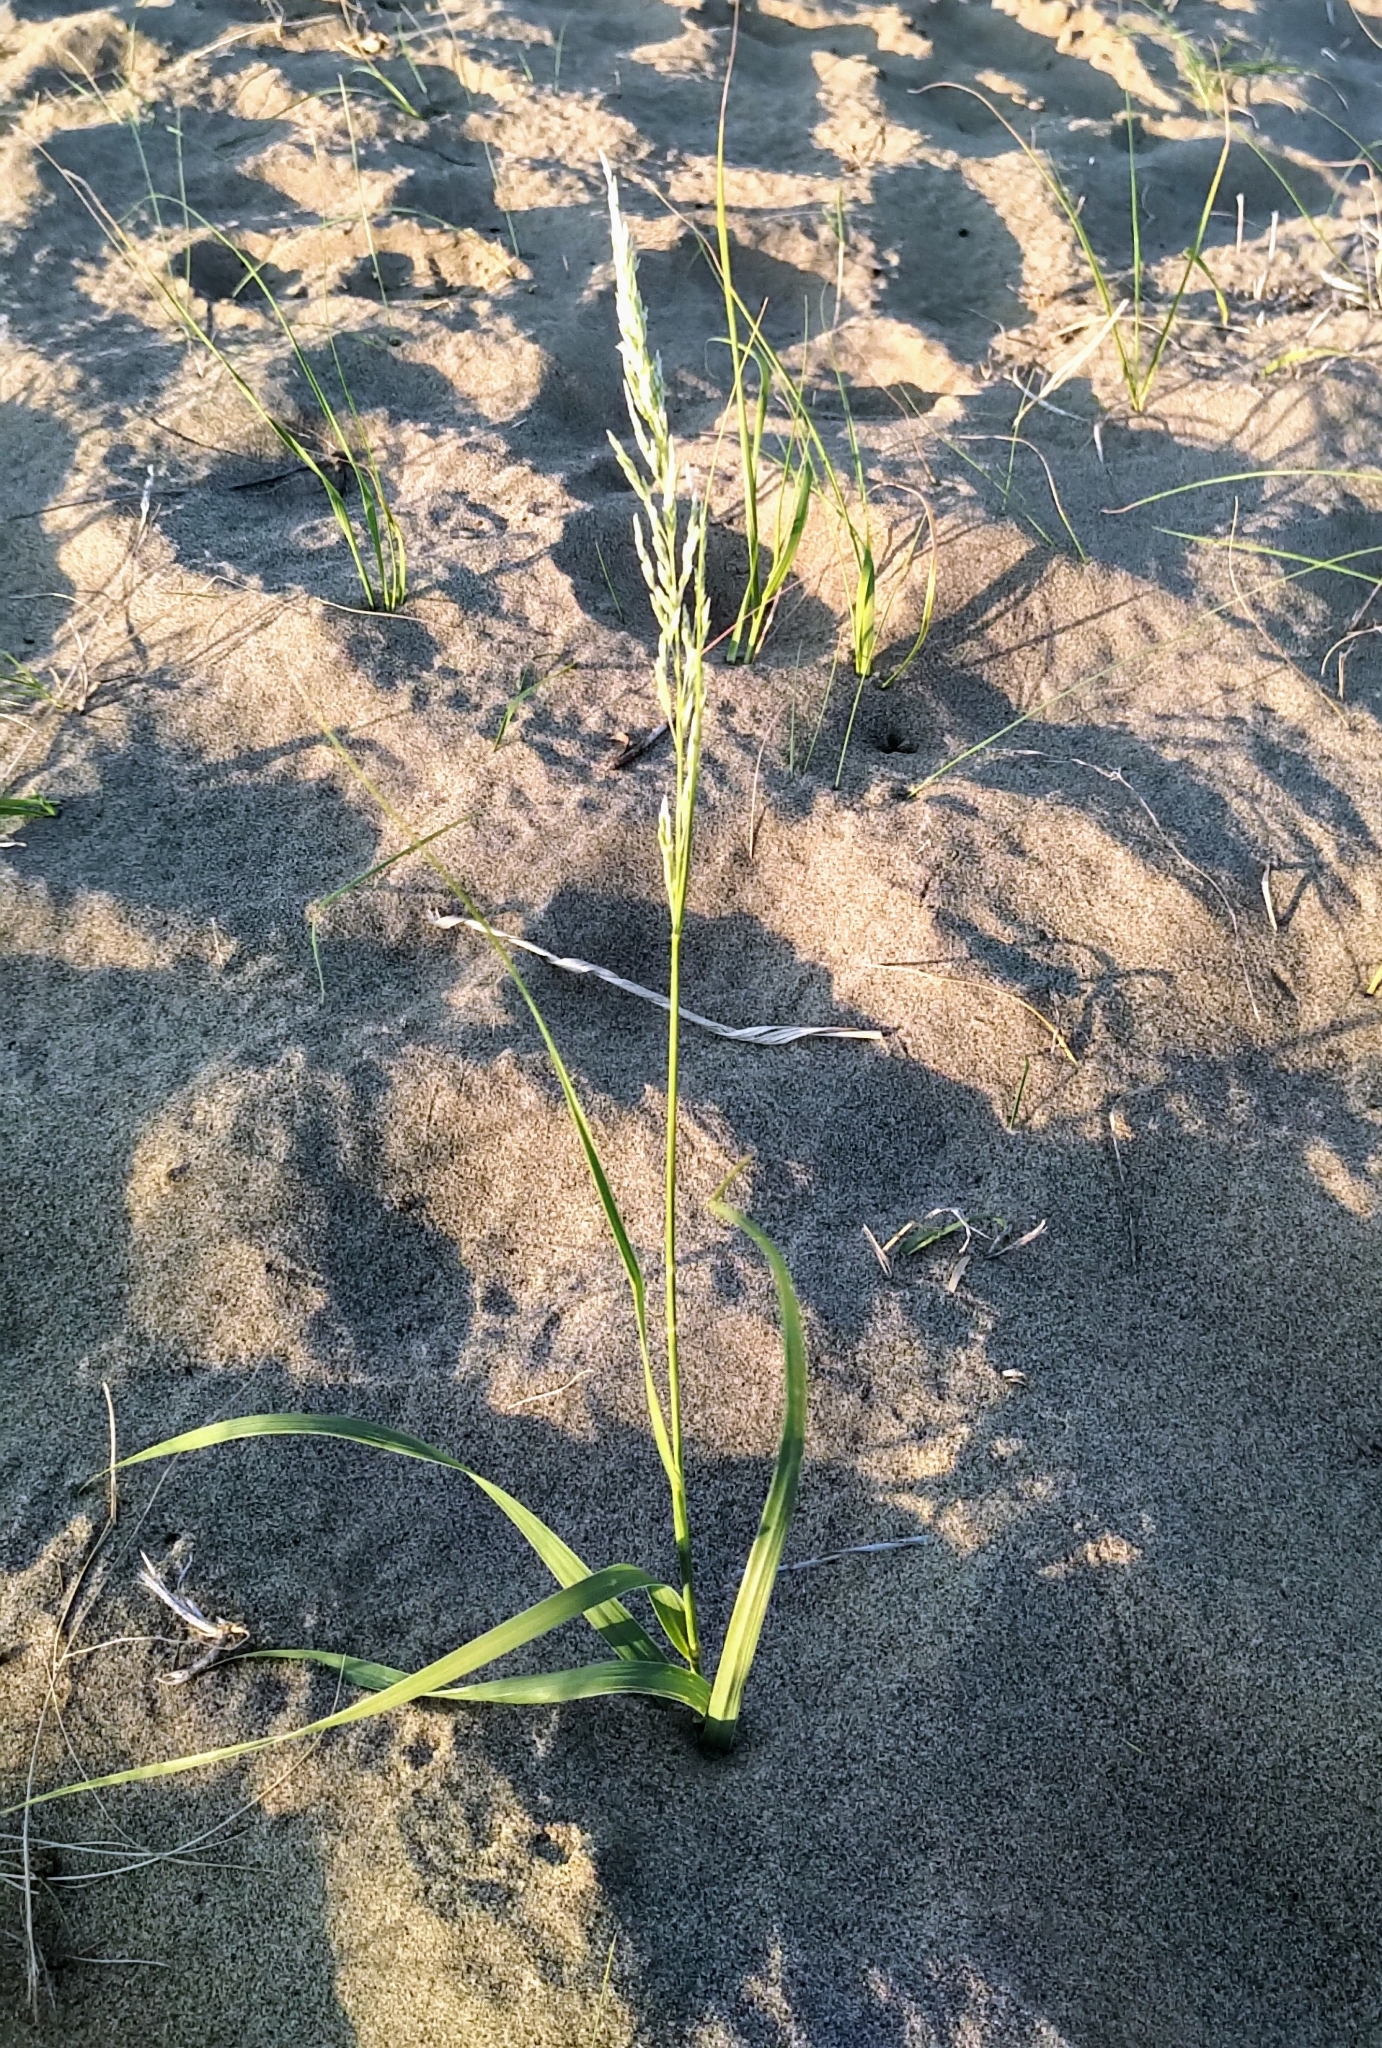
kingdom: Plantae
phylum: Tracheophyta
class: Liliopsida
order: Poales
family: Poaceae
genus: Sporobolus
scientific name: Sporobolus rigidus
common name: Prairie sandreed
